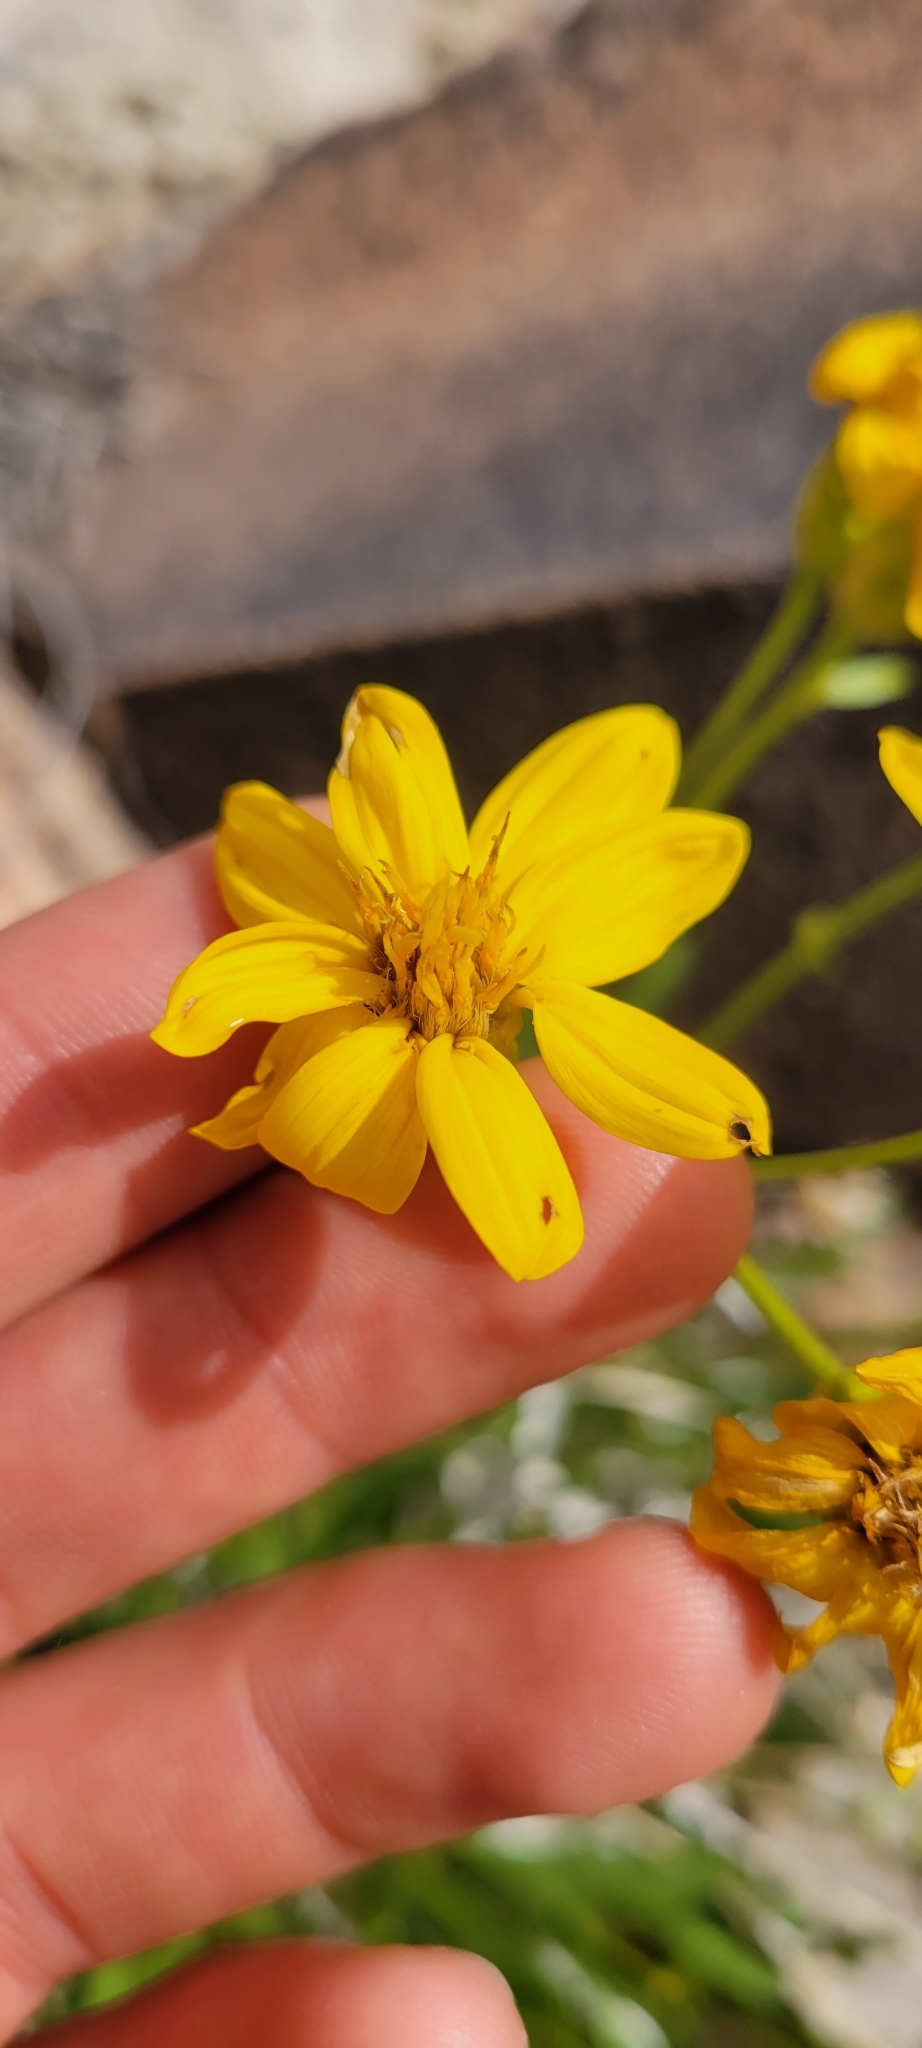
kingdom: Plantae
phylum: Tracheophyta
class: Magnoliopsida
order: Asterales
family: Asteraceae
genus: Stenotus
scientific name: Stenotus armerioides
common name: Thrifty goldenweed
